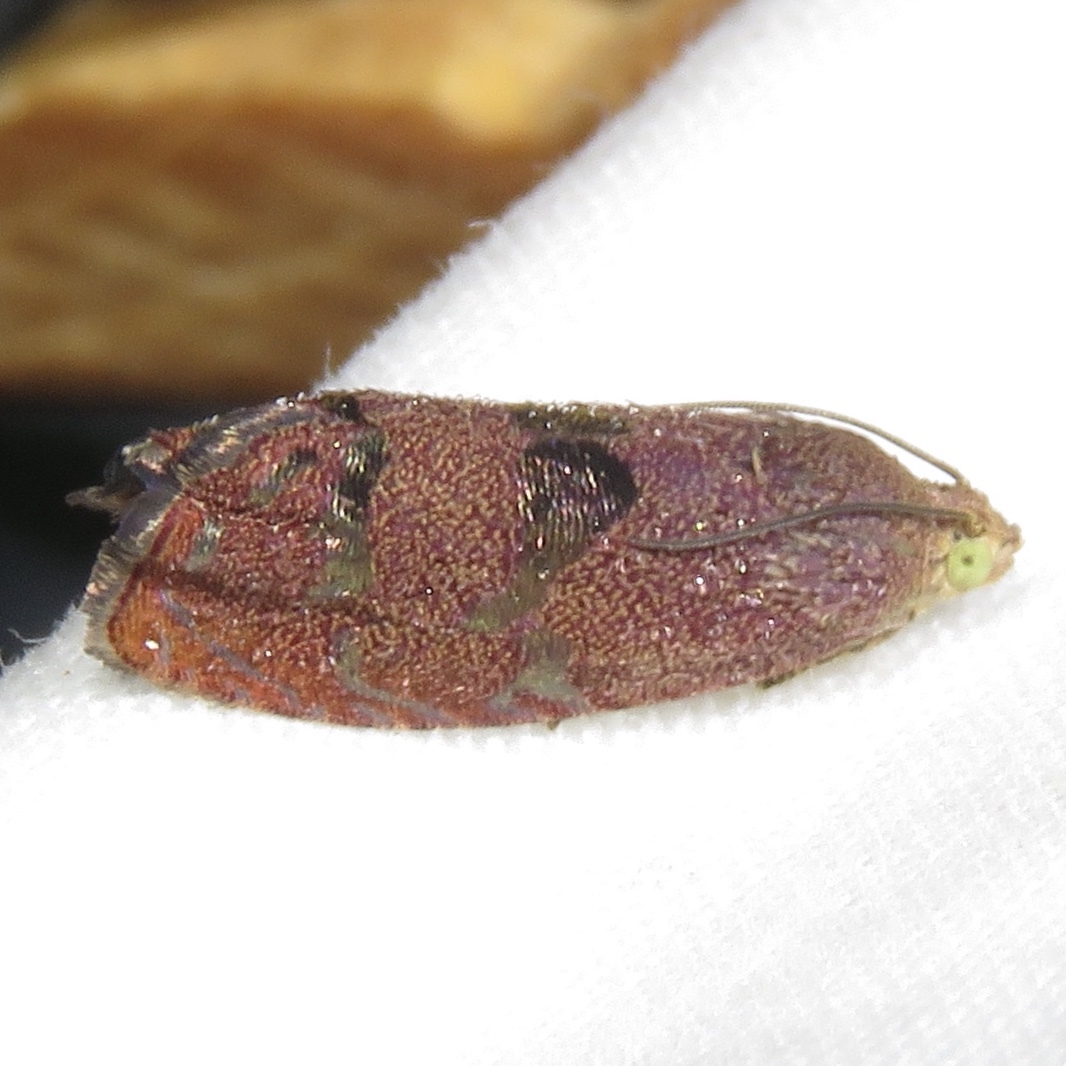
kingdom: Animalia
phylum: Arthropoda
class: Insecta
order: Lepidoptera
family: Tortricidae
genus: Cydia
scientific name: Cydia latiferreana
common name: Filbertworm moth
